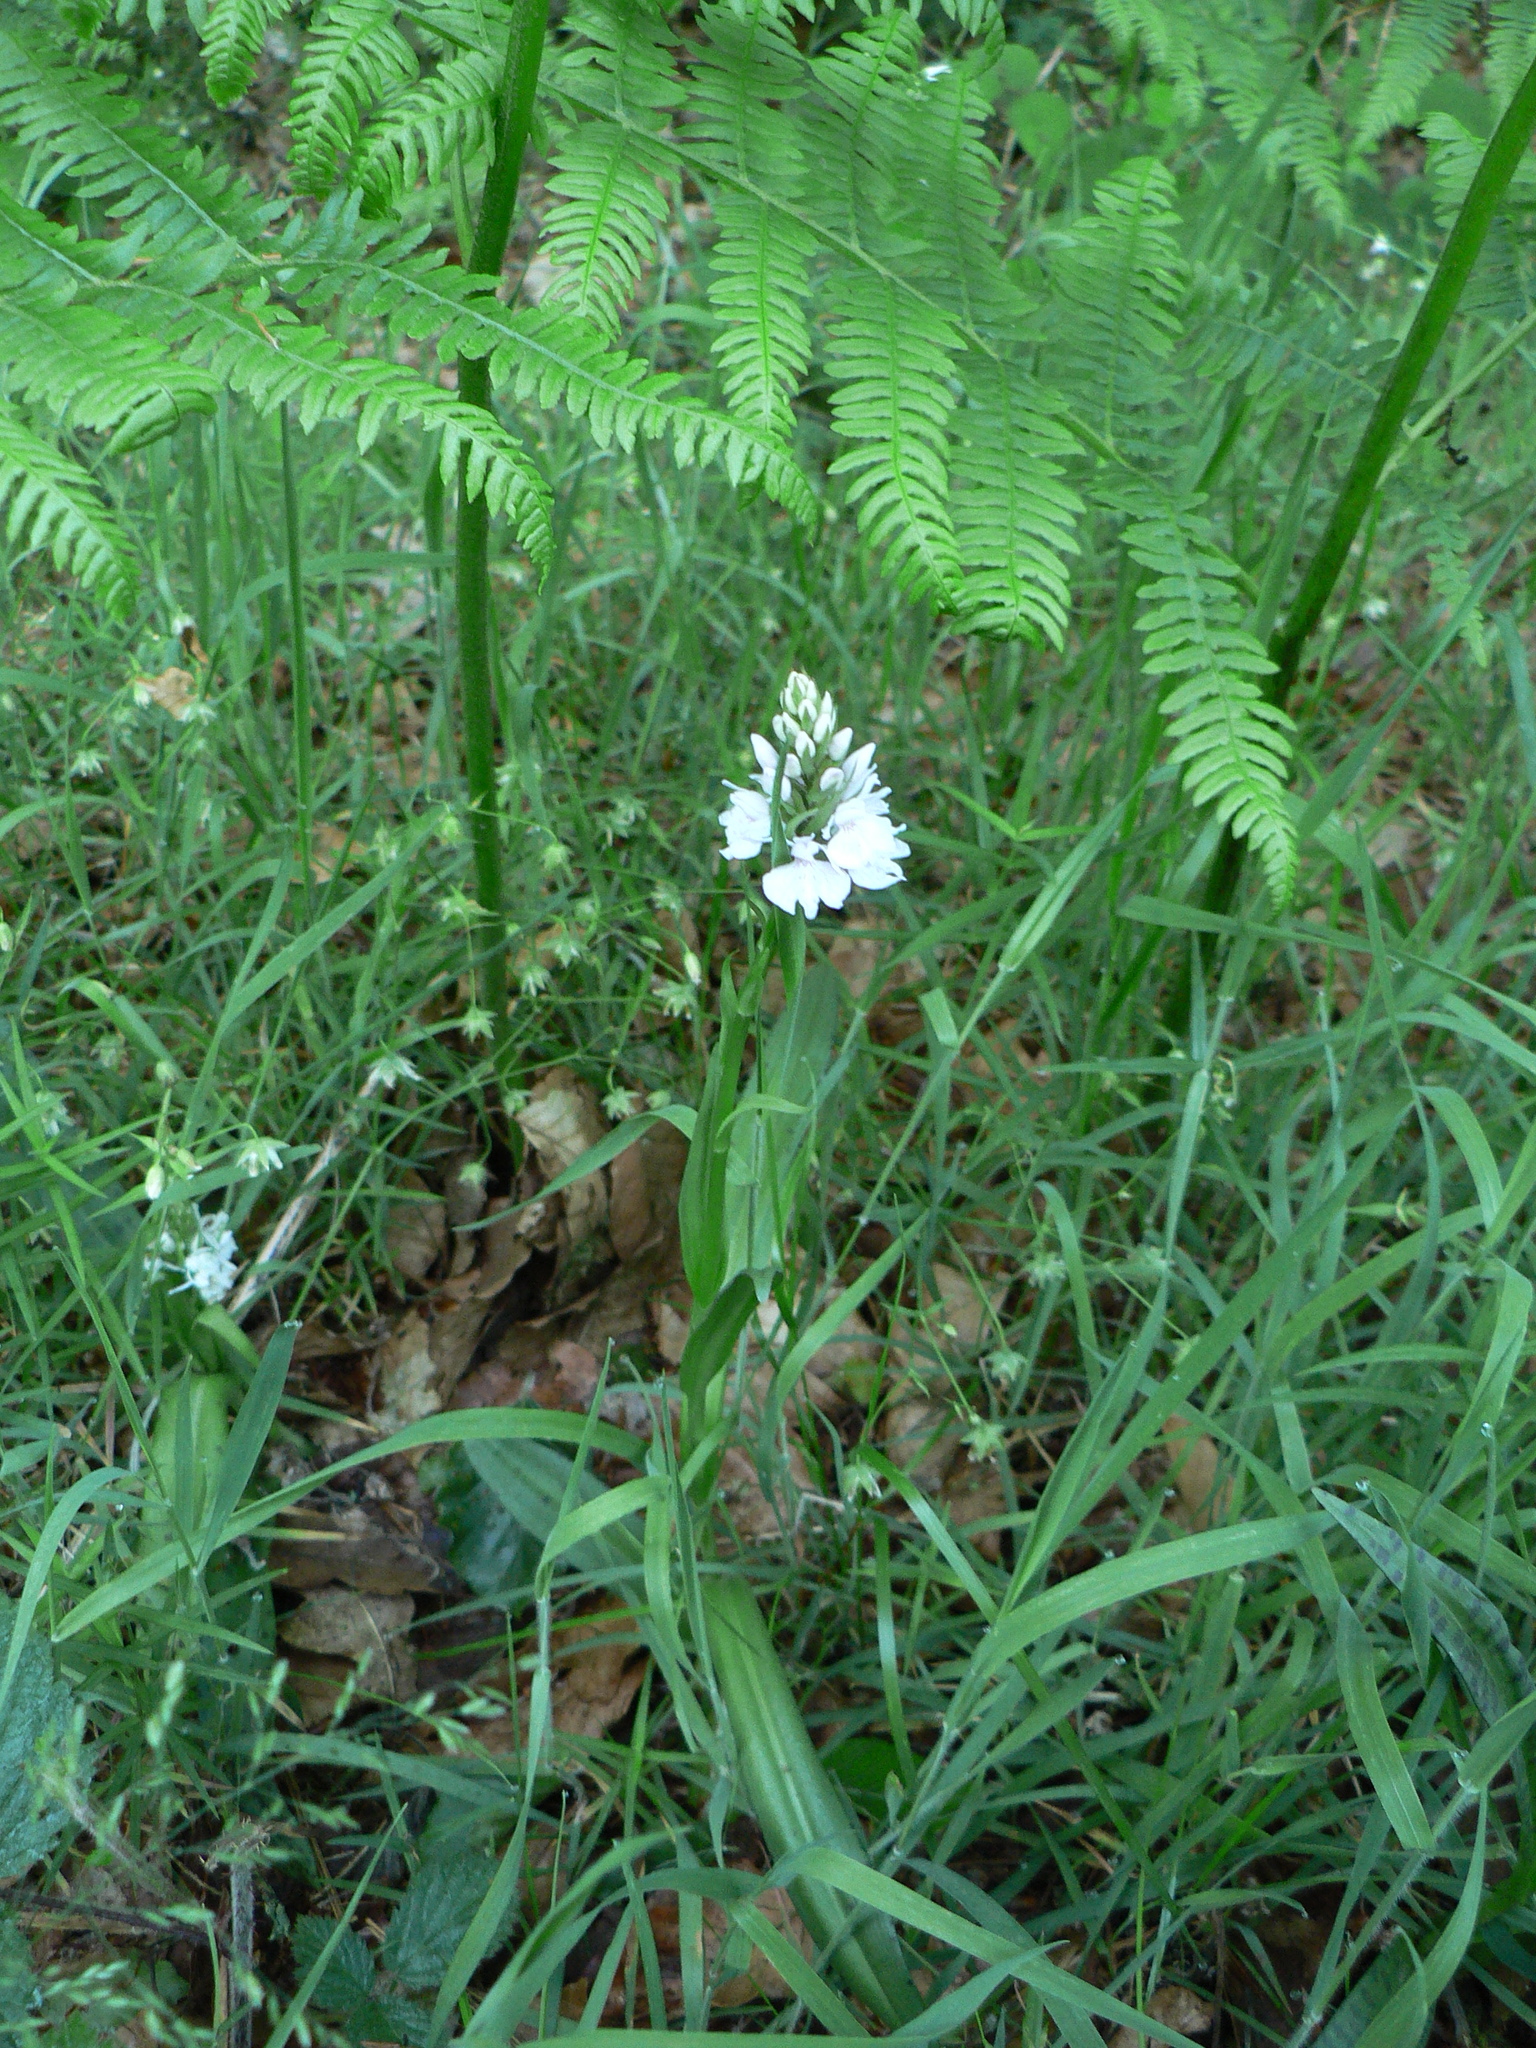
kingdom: Plantae
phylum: Tracheophyta
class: Liliopsida
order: Asparagales
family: Orchidaceae
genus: Dactylorhiza
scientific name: Dactylorhiza maculata
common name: Heath spotted-orchid
